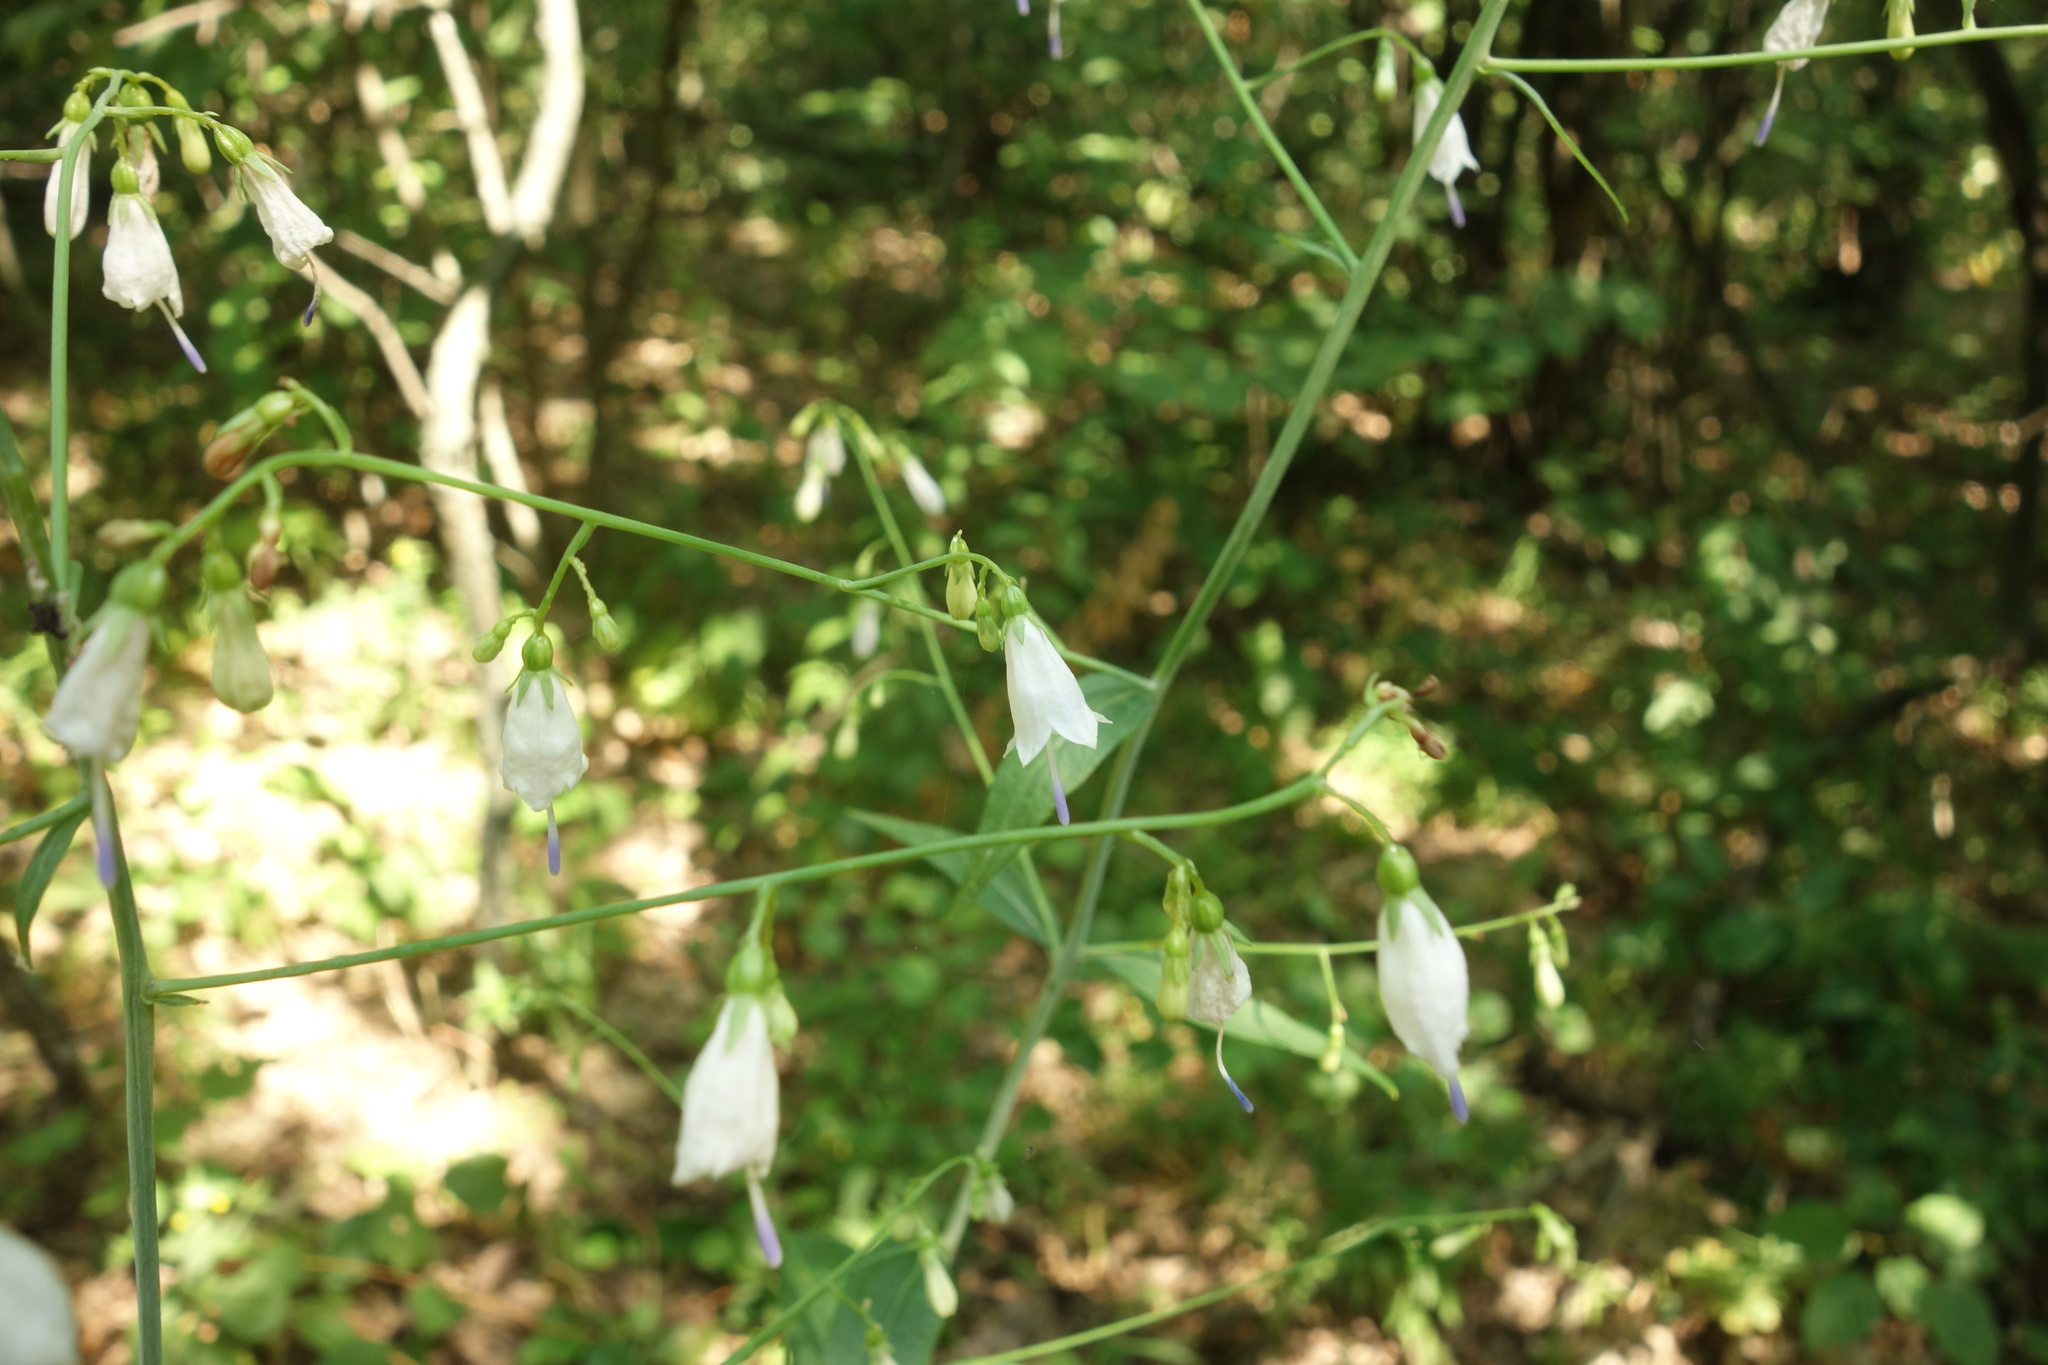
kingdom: Plantae
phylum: Tracheophyta
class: Magnoliopsida
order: Asterales
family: Campanulaceae
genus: Adenophora
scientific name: Adenophora liliifolia
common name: Lilyleaf ladybells
